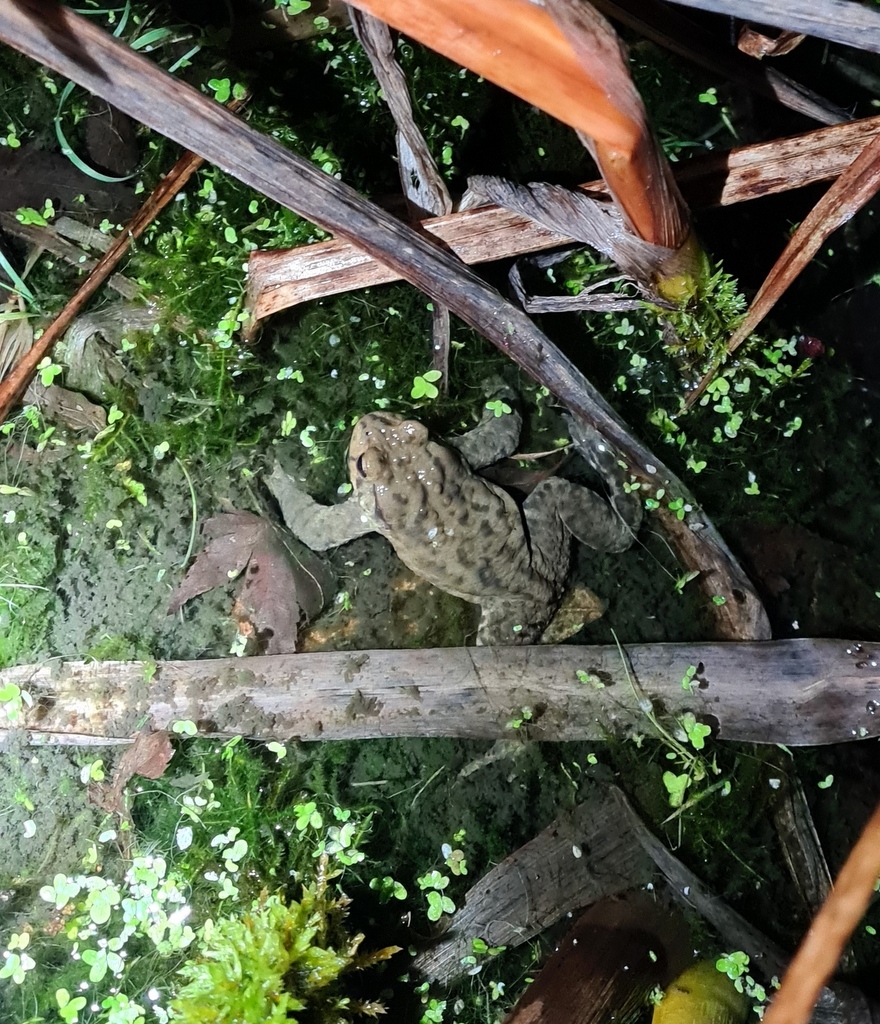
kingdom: Animalia
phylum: Chordata
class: Amphibia
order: Anura
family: Bufonidae
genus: Bufo
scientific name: Bufo bufo
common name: Common toad
